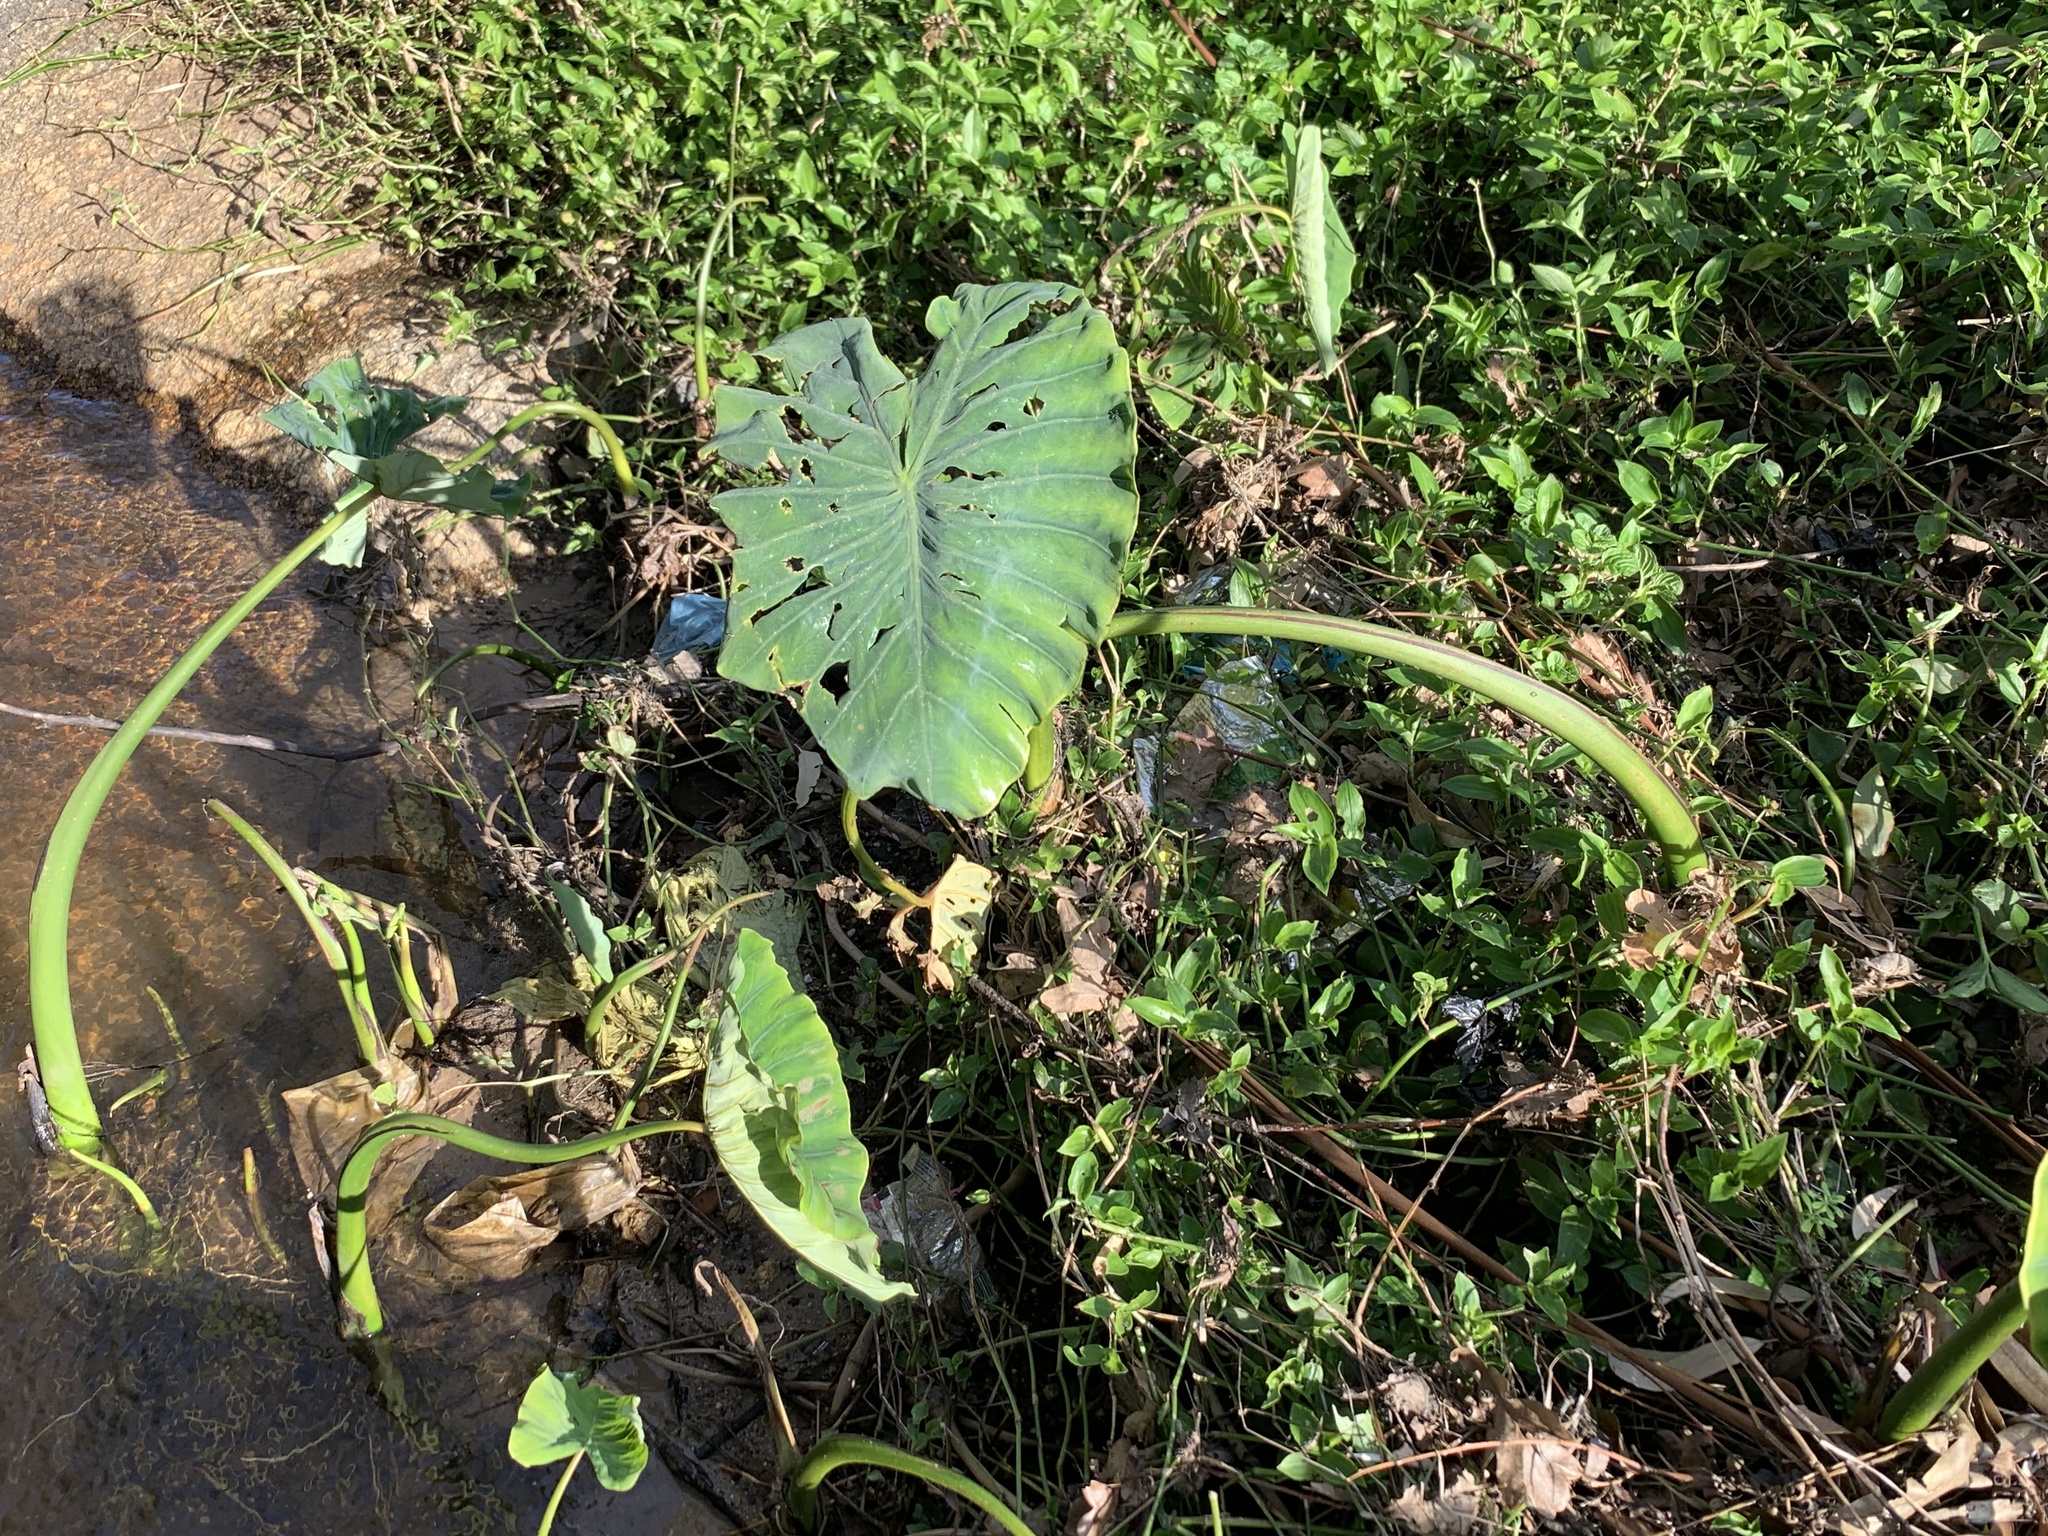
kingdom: Plantae
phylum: Tracheophyta
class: Liliopsida
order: Alismatales
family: Araceae
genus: Colocasia
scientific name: Colocasia esculenta
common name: Taro
